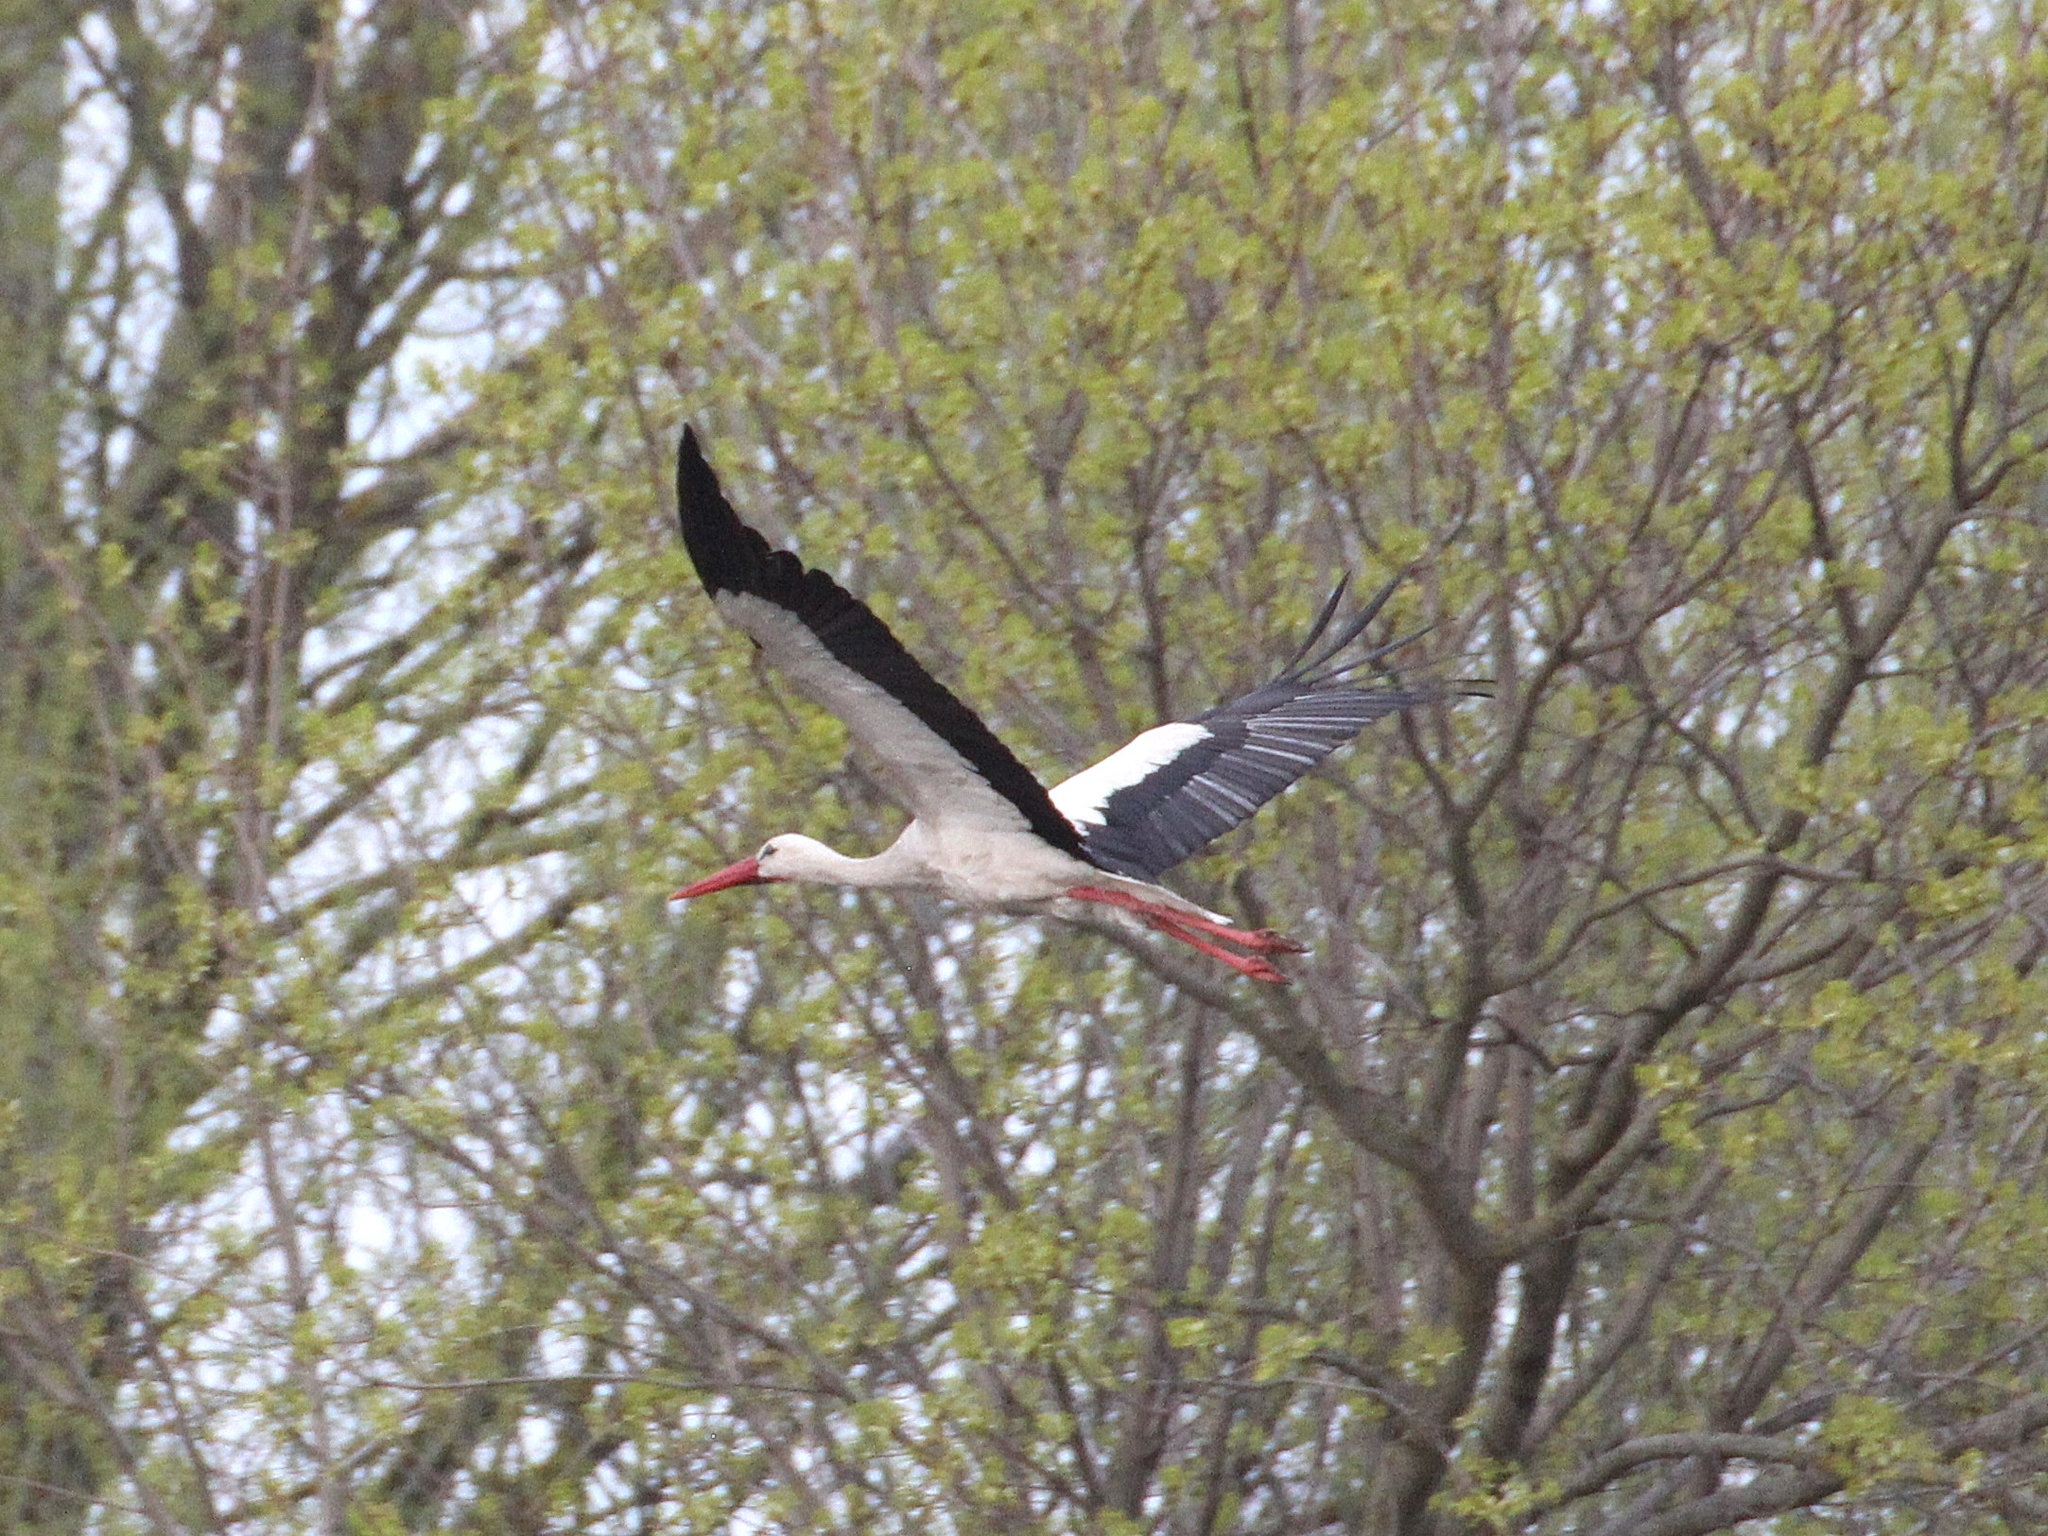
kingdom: Animalia
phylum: Chordata
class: Aves
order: Ciconiiformes
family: Ciconiidae
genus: Ciconia
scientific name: Ciconia ciconia
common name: White stork
